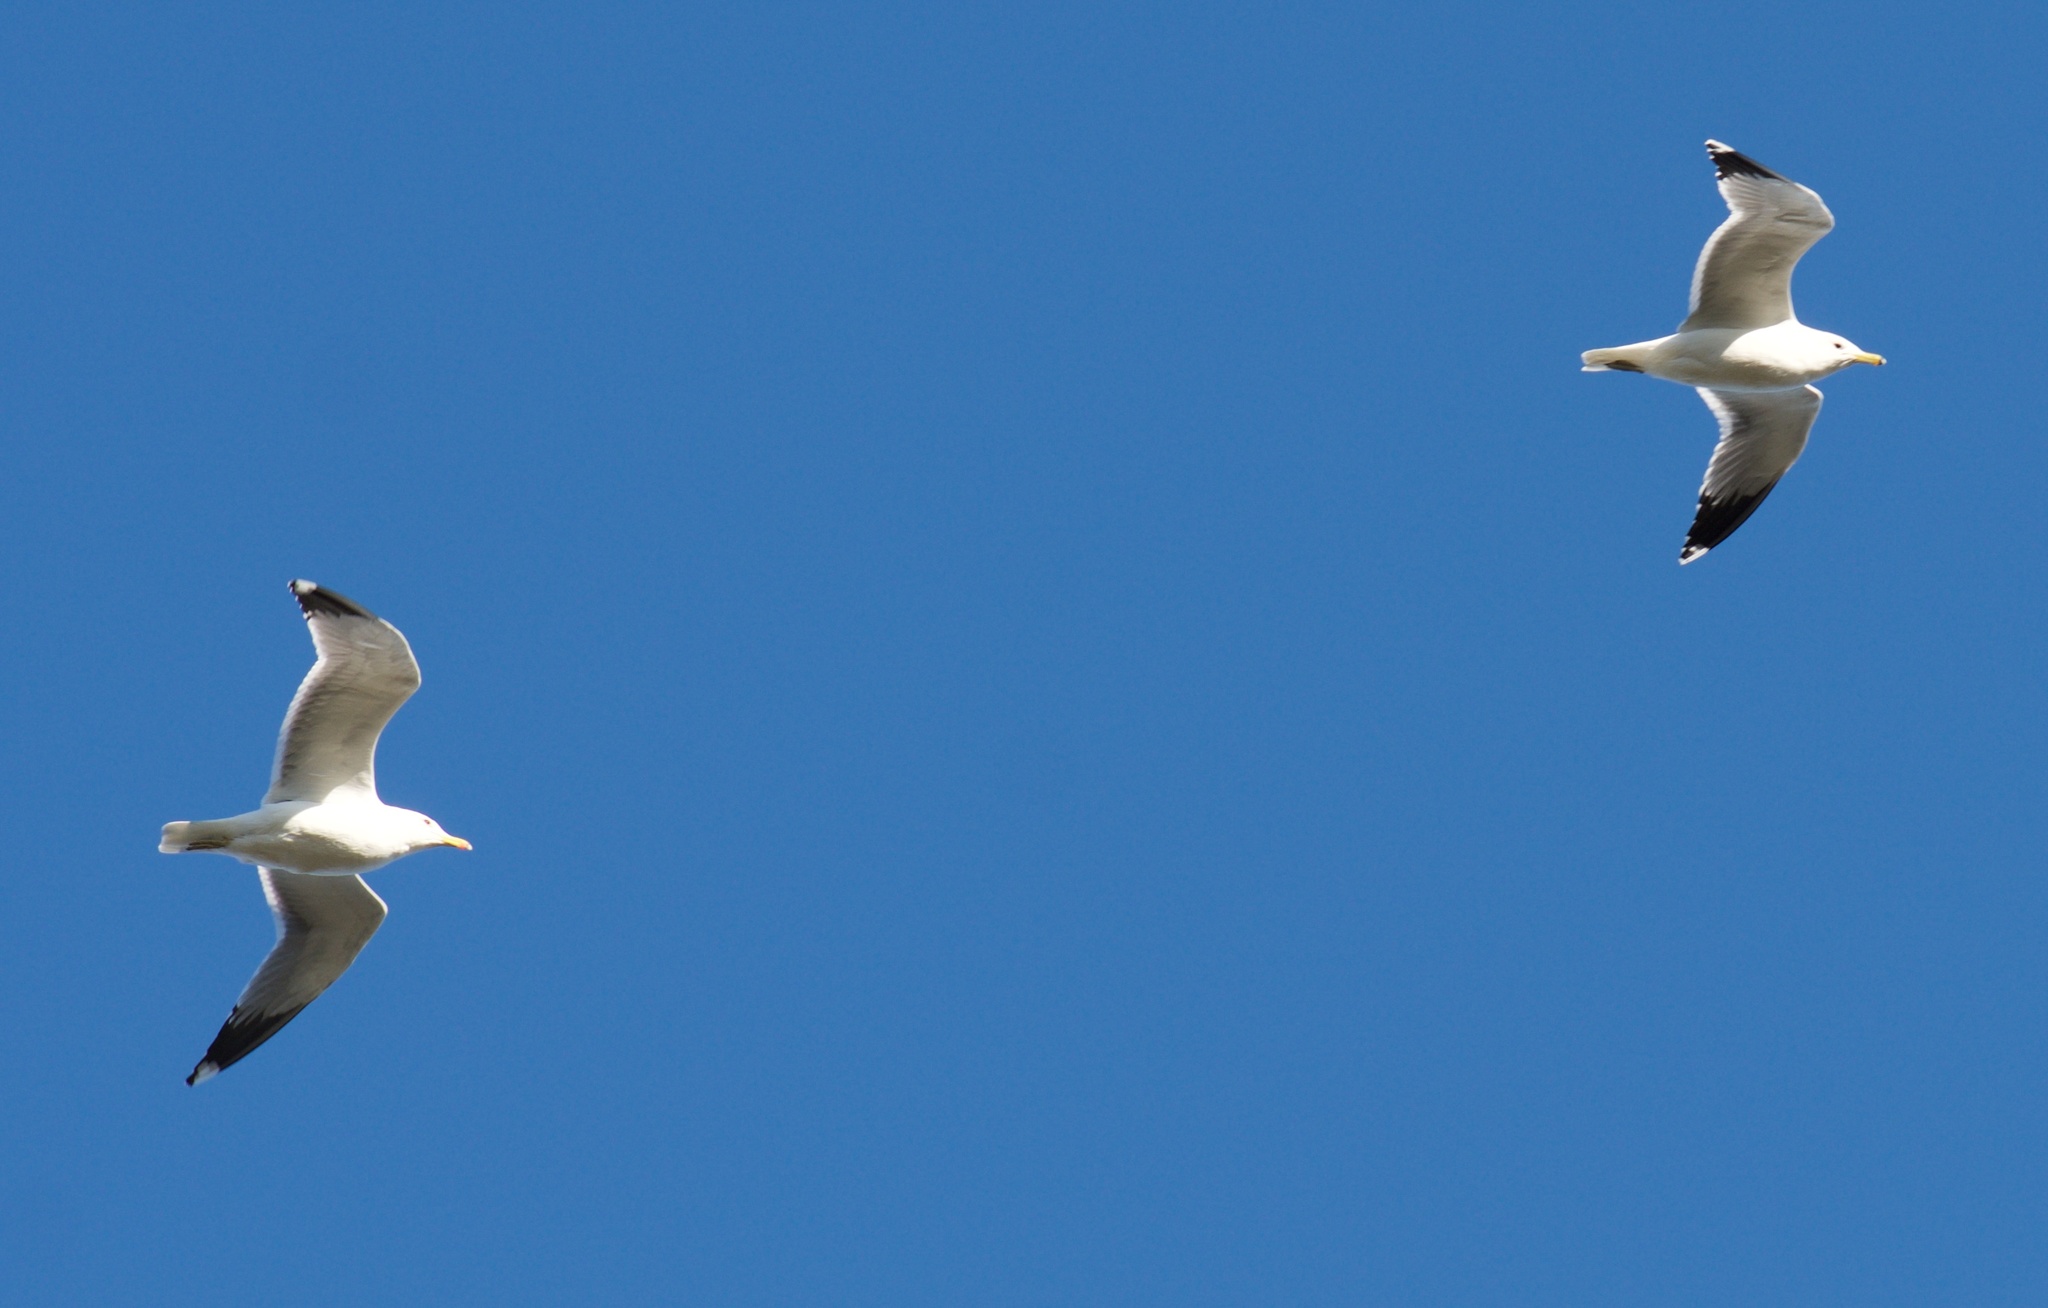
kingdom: Animalia
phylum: Chordata
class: Aves
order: Charadriiformes
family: Laridae
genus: Larus
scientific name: Larus californicus
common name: California gull
